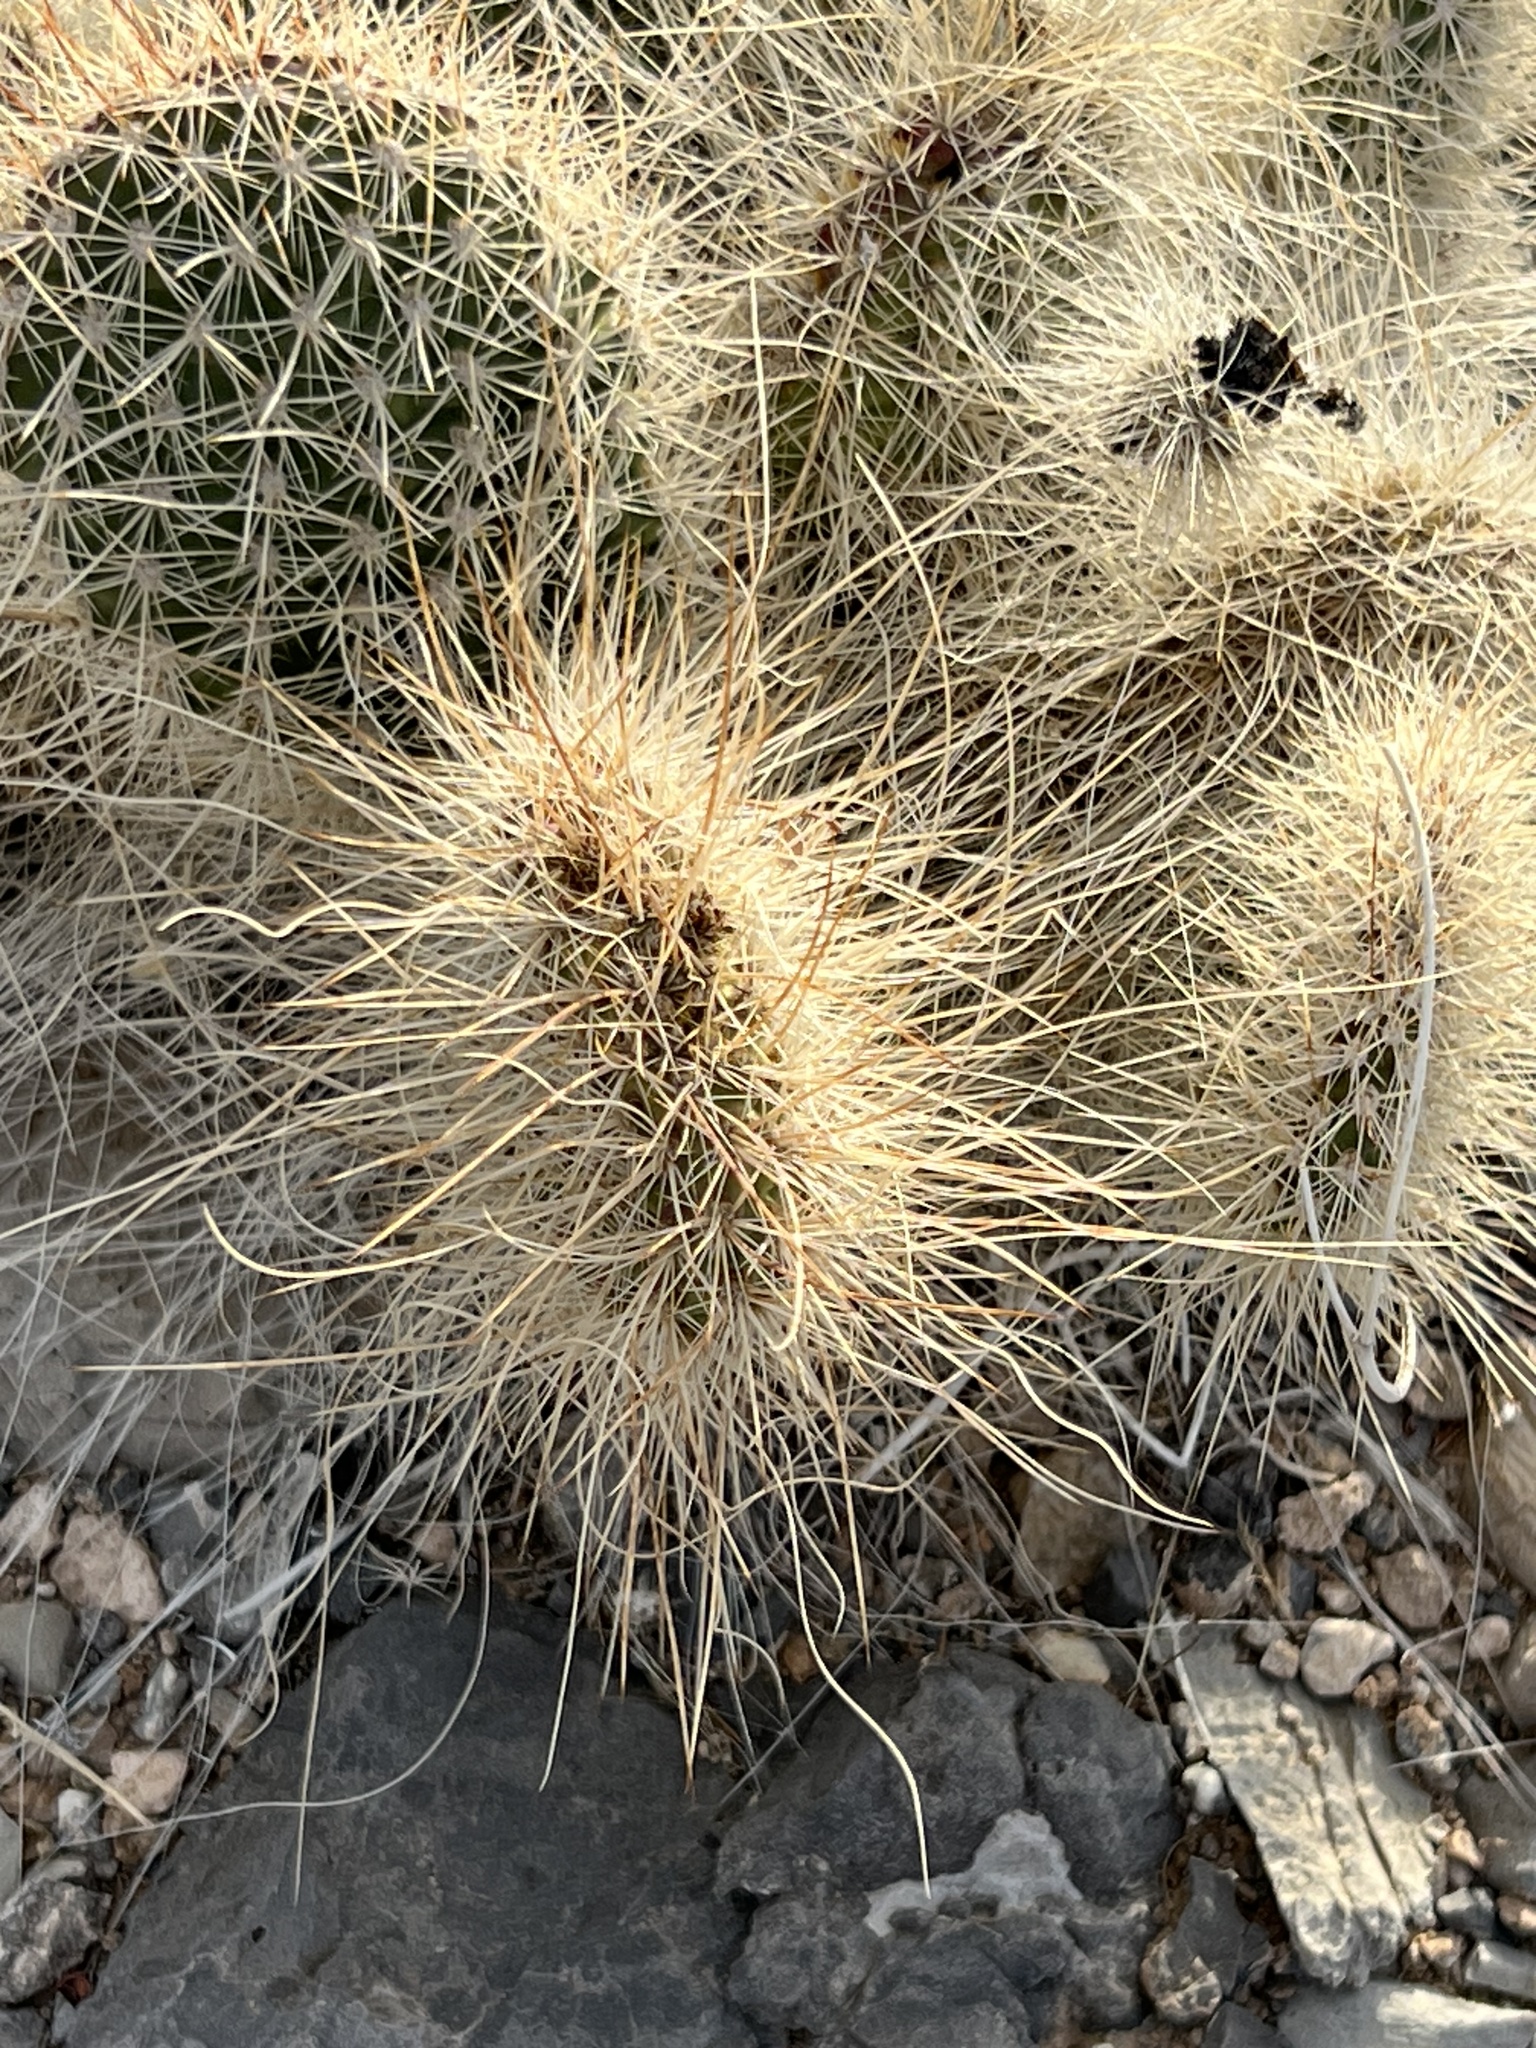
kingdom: Plantae
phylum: Tracheophyta
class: Magnoliopsida
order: Caryophyllales
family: Cactaceae
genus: Opuntia
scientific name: Opuntia polyacantha
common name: Plains prickly-pear
